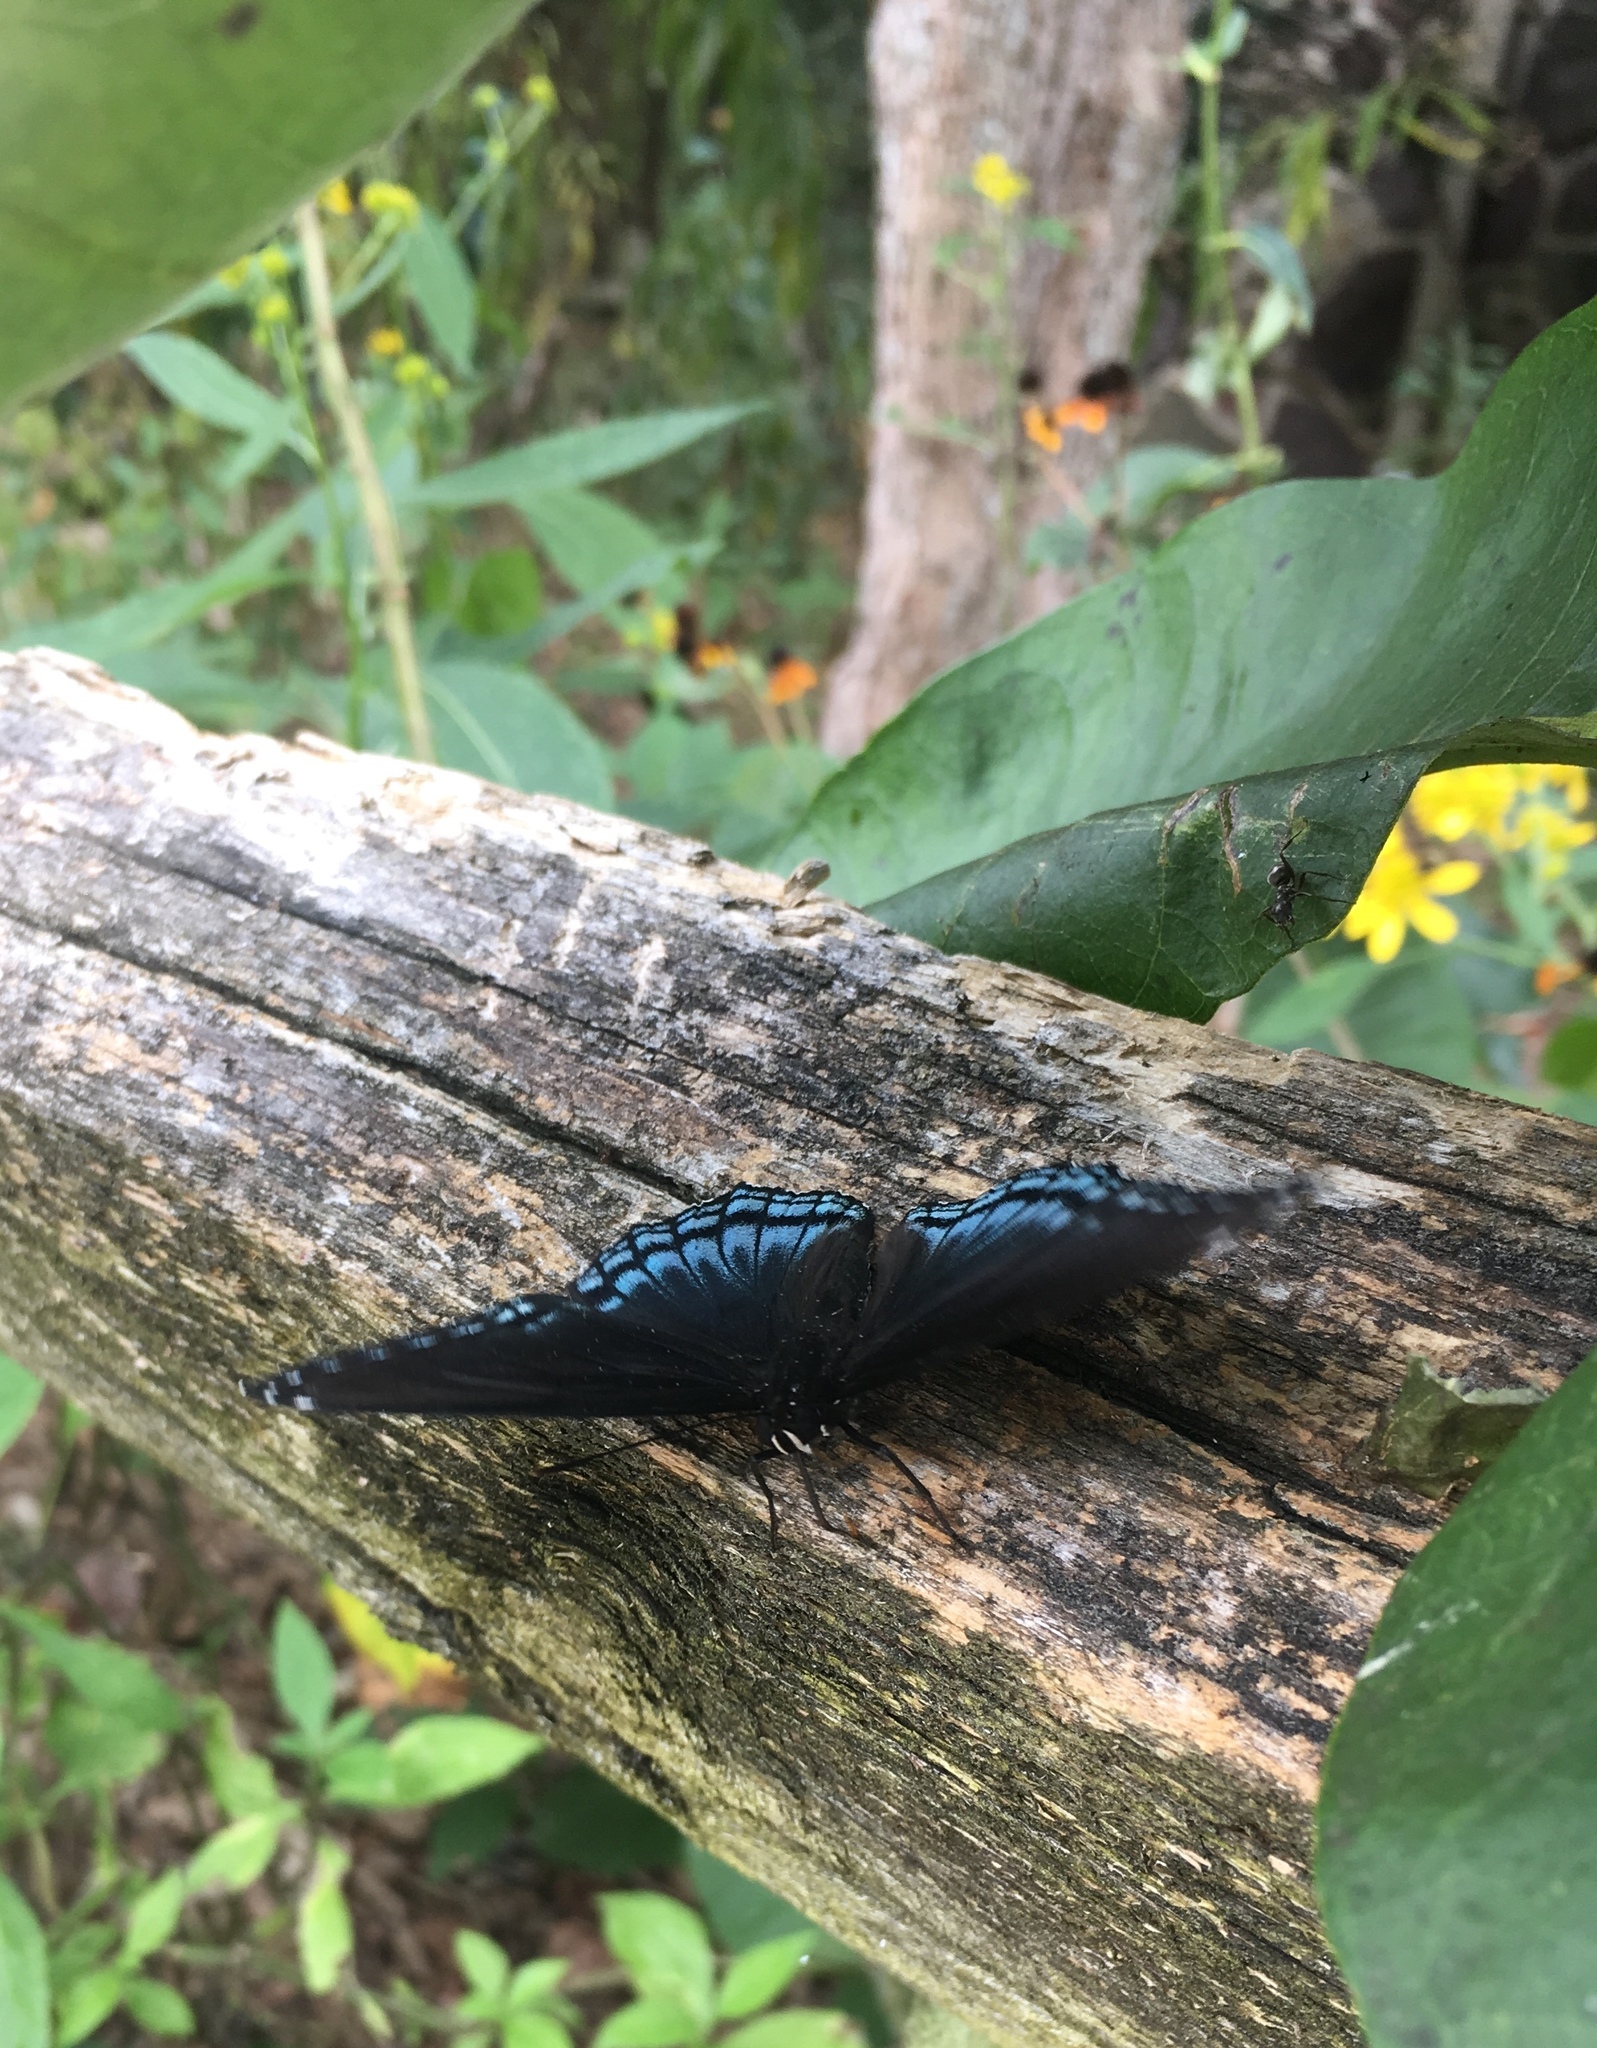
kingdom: Animalia
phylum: Arthropoda
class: Insecta
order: Lepidoptera
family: Nymphalidae
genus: Limenitis
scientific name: Limenitis arthemis
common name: Red-spotted admiral
